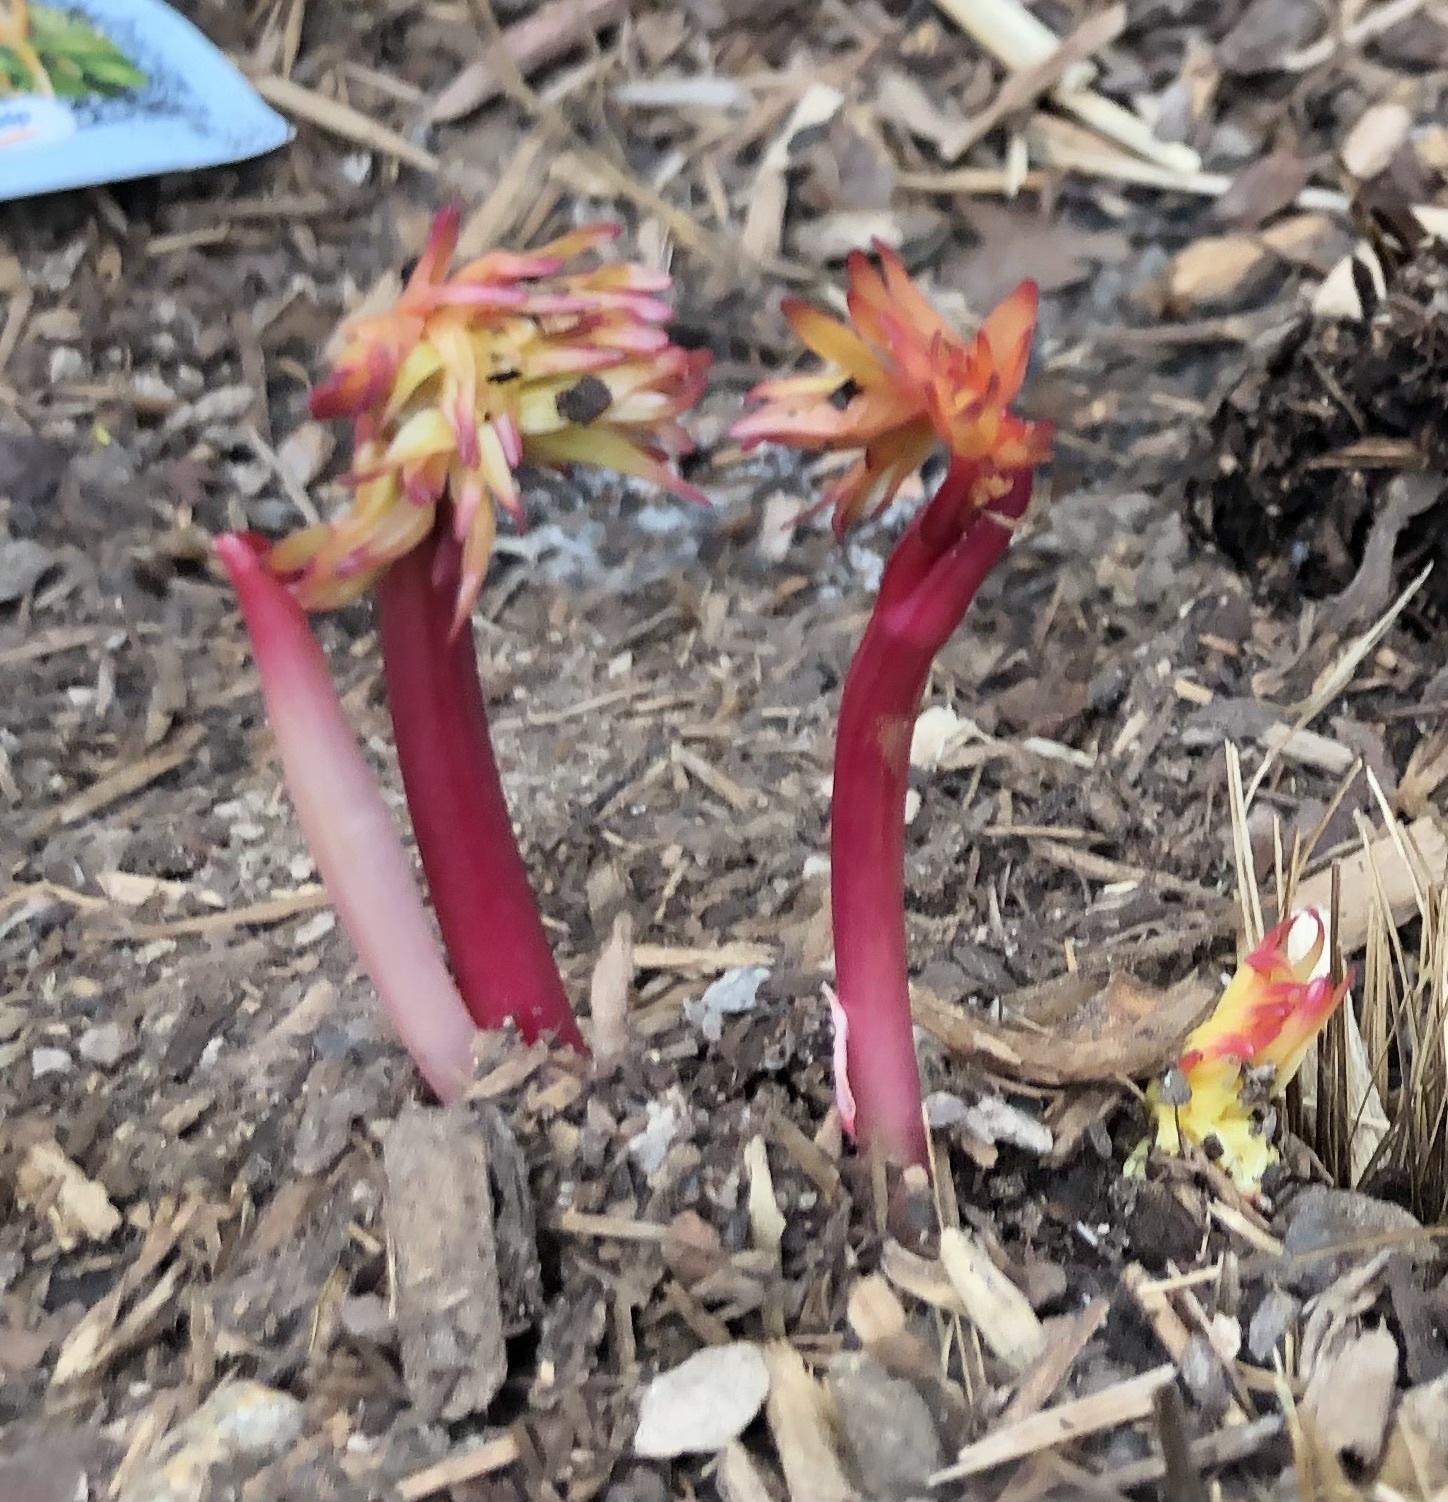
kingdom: Plantae
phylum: Tracheophyta
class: Liliopsida
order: Asparagales
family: Orchidaceae
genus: Corallorhiza
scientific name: Corallorhiza maculata
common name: Spotted coralroot
